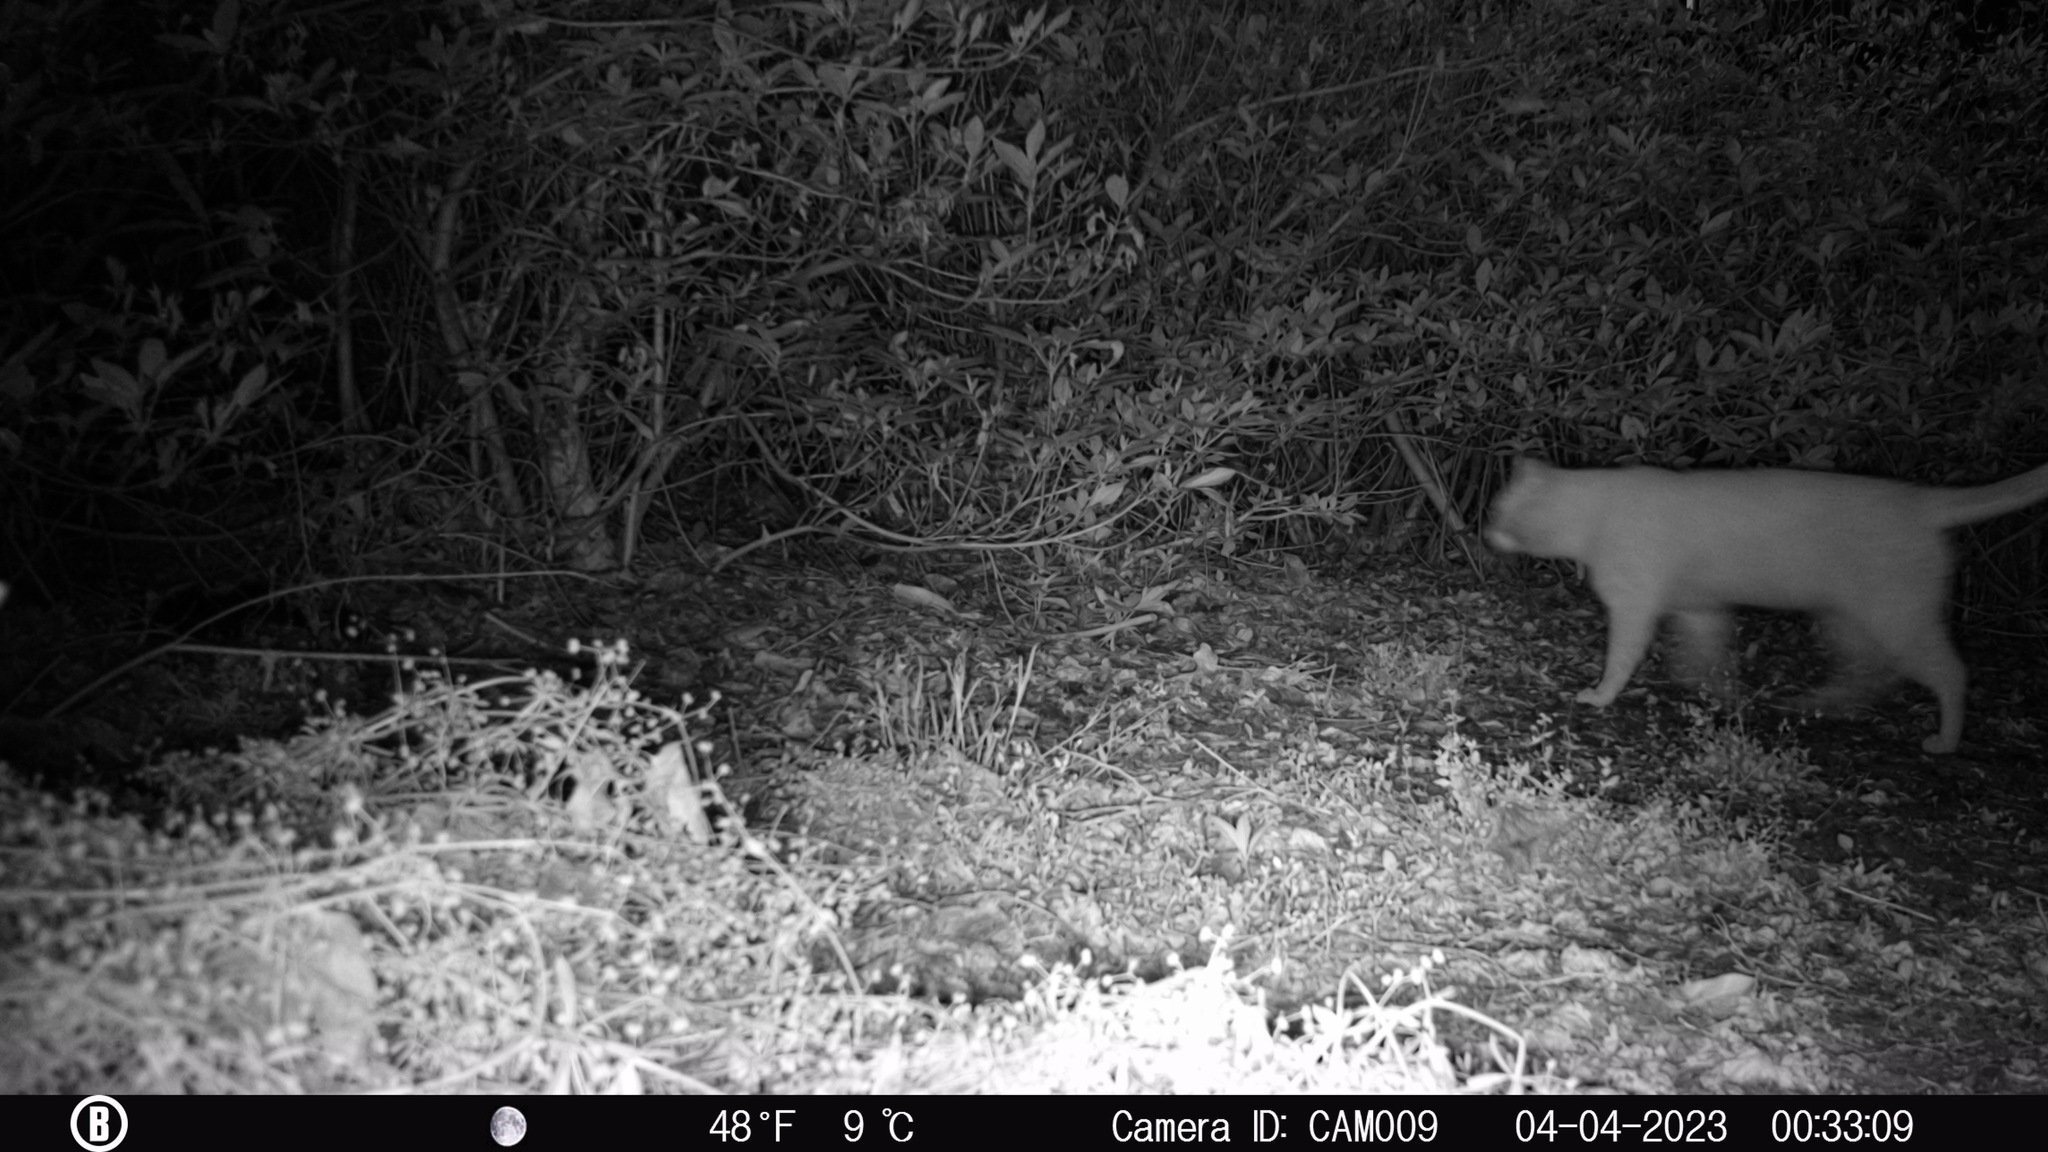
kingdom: Animalia
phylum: Chordata
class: Mammalia
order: Carnivora
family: Felidae
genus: Felis
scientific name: Felis catus
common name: Domestic cat
